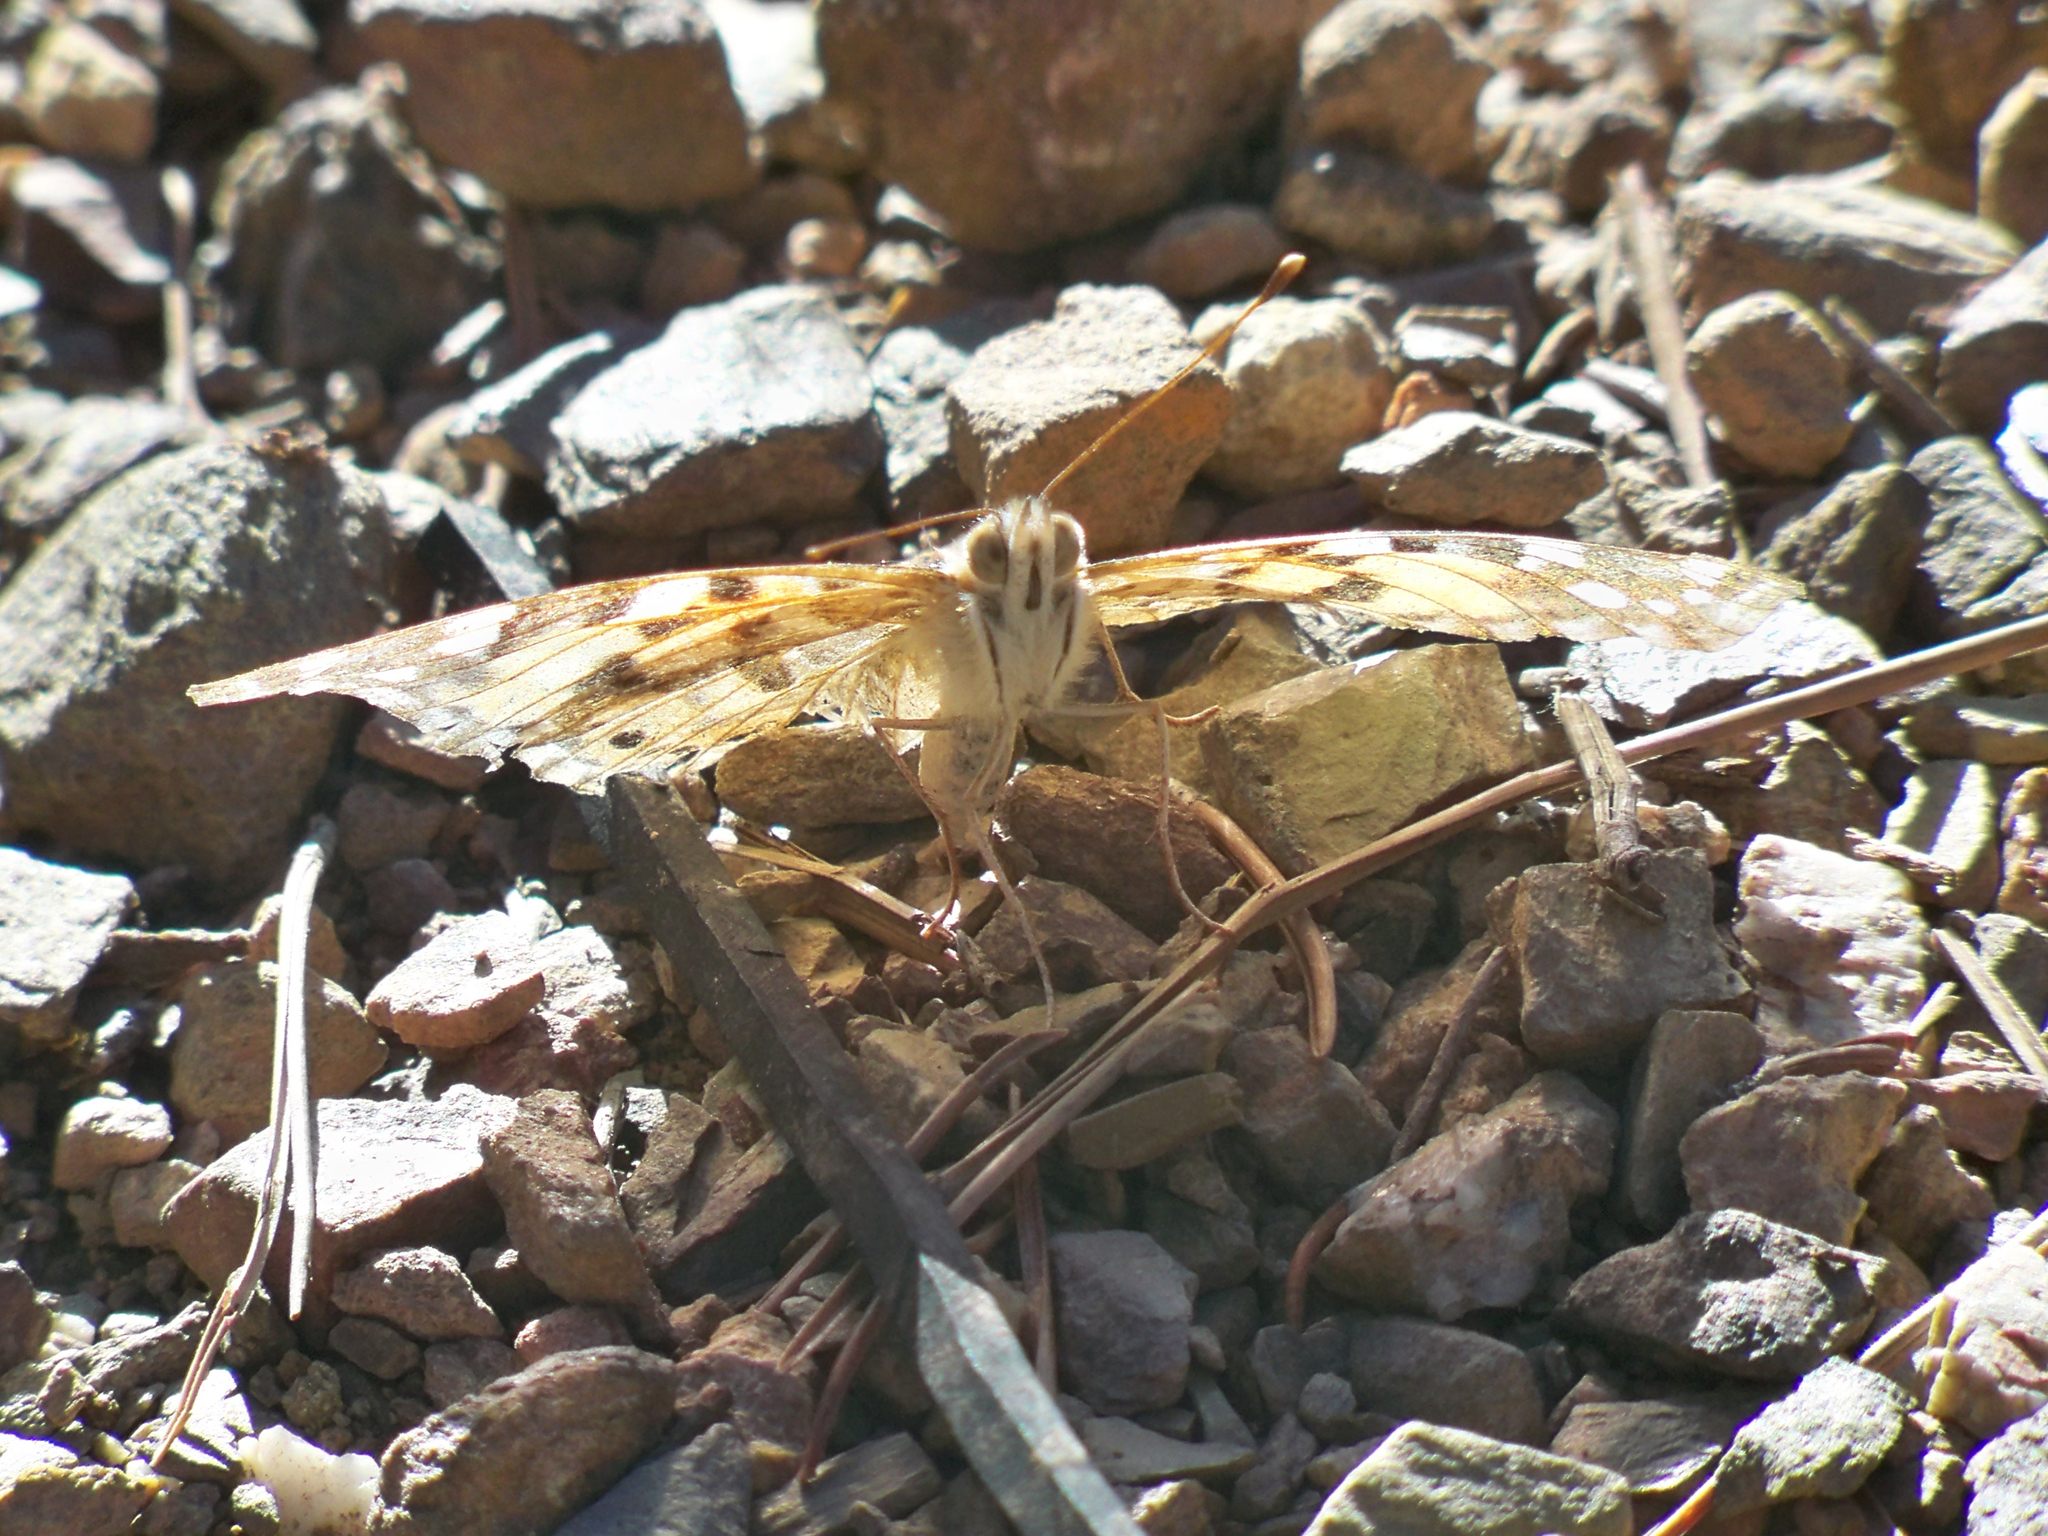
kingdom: Animalia
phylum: Arthropoda
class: Insecta
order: Lepidoptera
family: Nymphalidae
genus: Vanessa
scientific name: Vanessa cardui
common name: Painted lady
